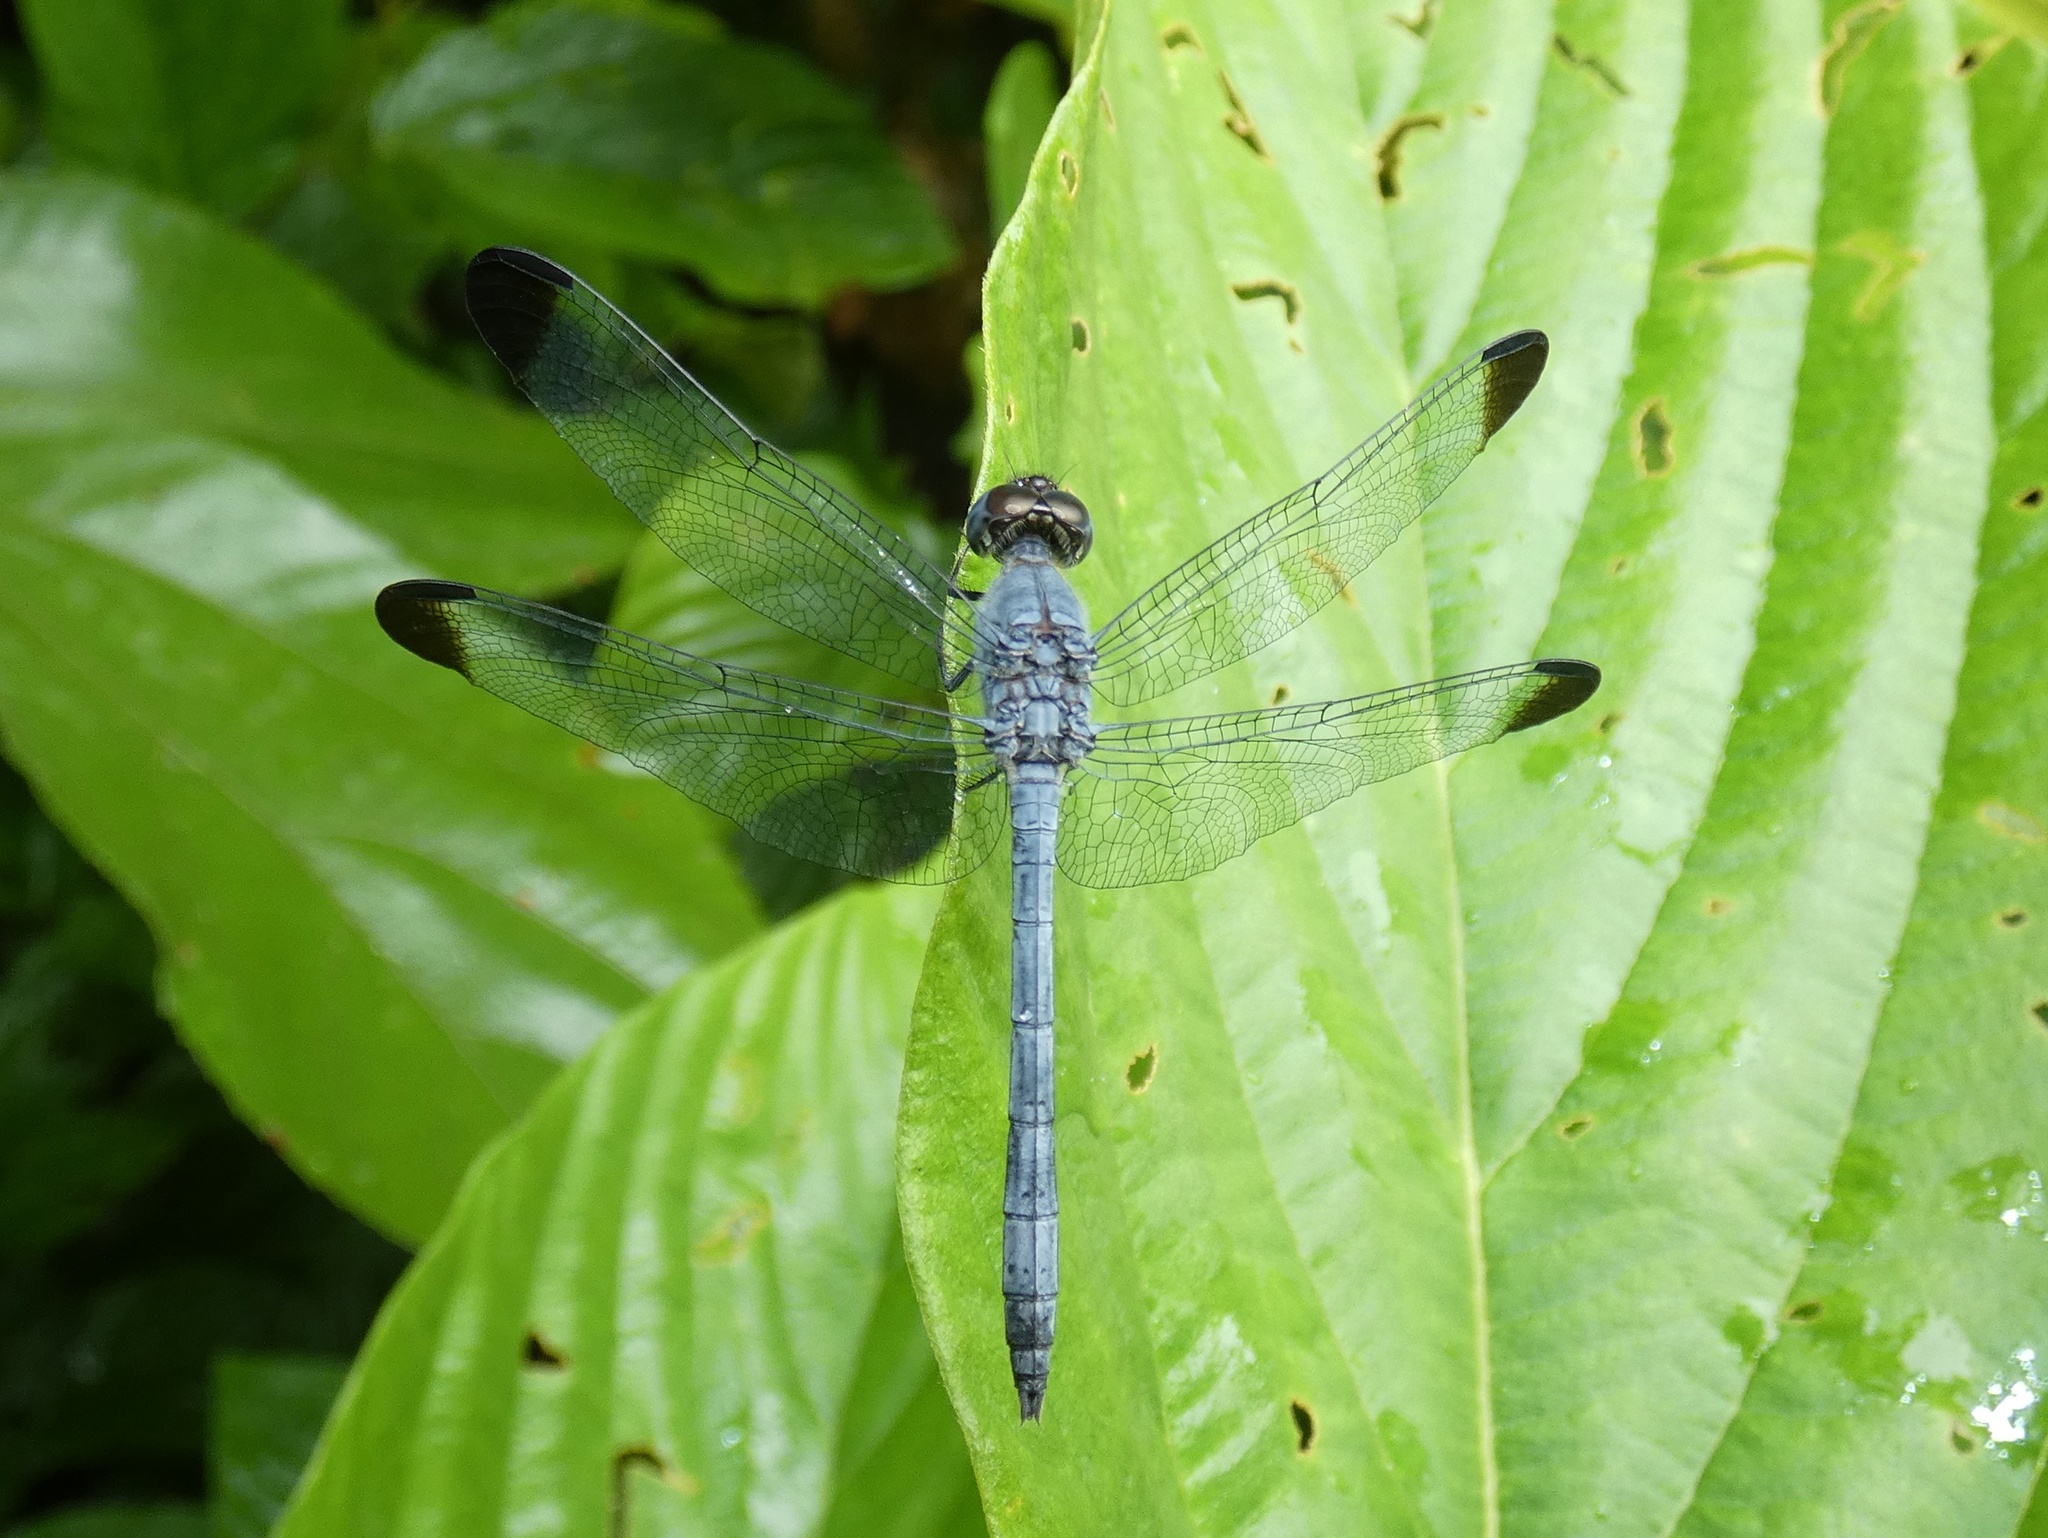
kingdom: Animalia
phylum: Arthropoda
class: Insecta
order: Odonata
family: Libellulidae
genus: Uracis
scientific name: Uracis imbuta
